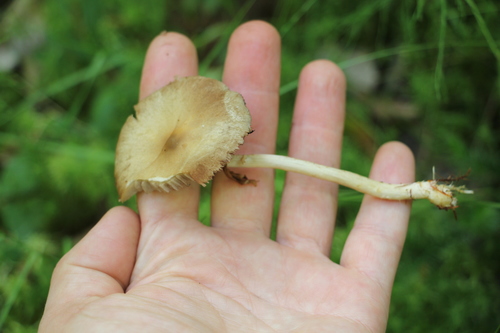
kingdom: Fungi
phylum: Basidiomycota
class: Agaricomycetes
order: Agaricales
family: Strophariaceae
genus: Agrocybe
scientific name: Agrocybe praecox
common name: Spring fieldcap
